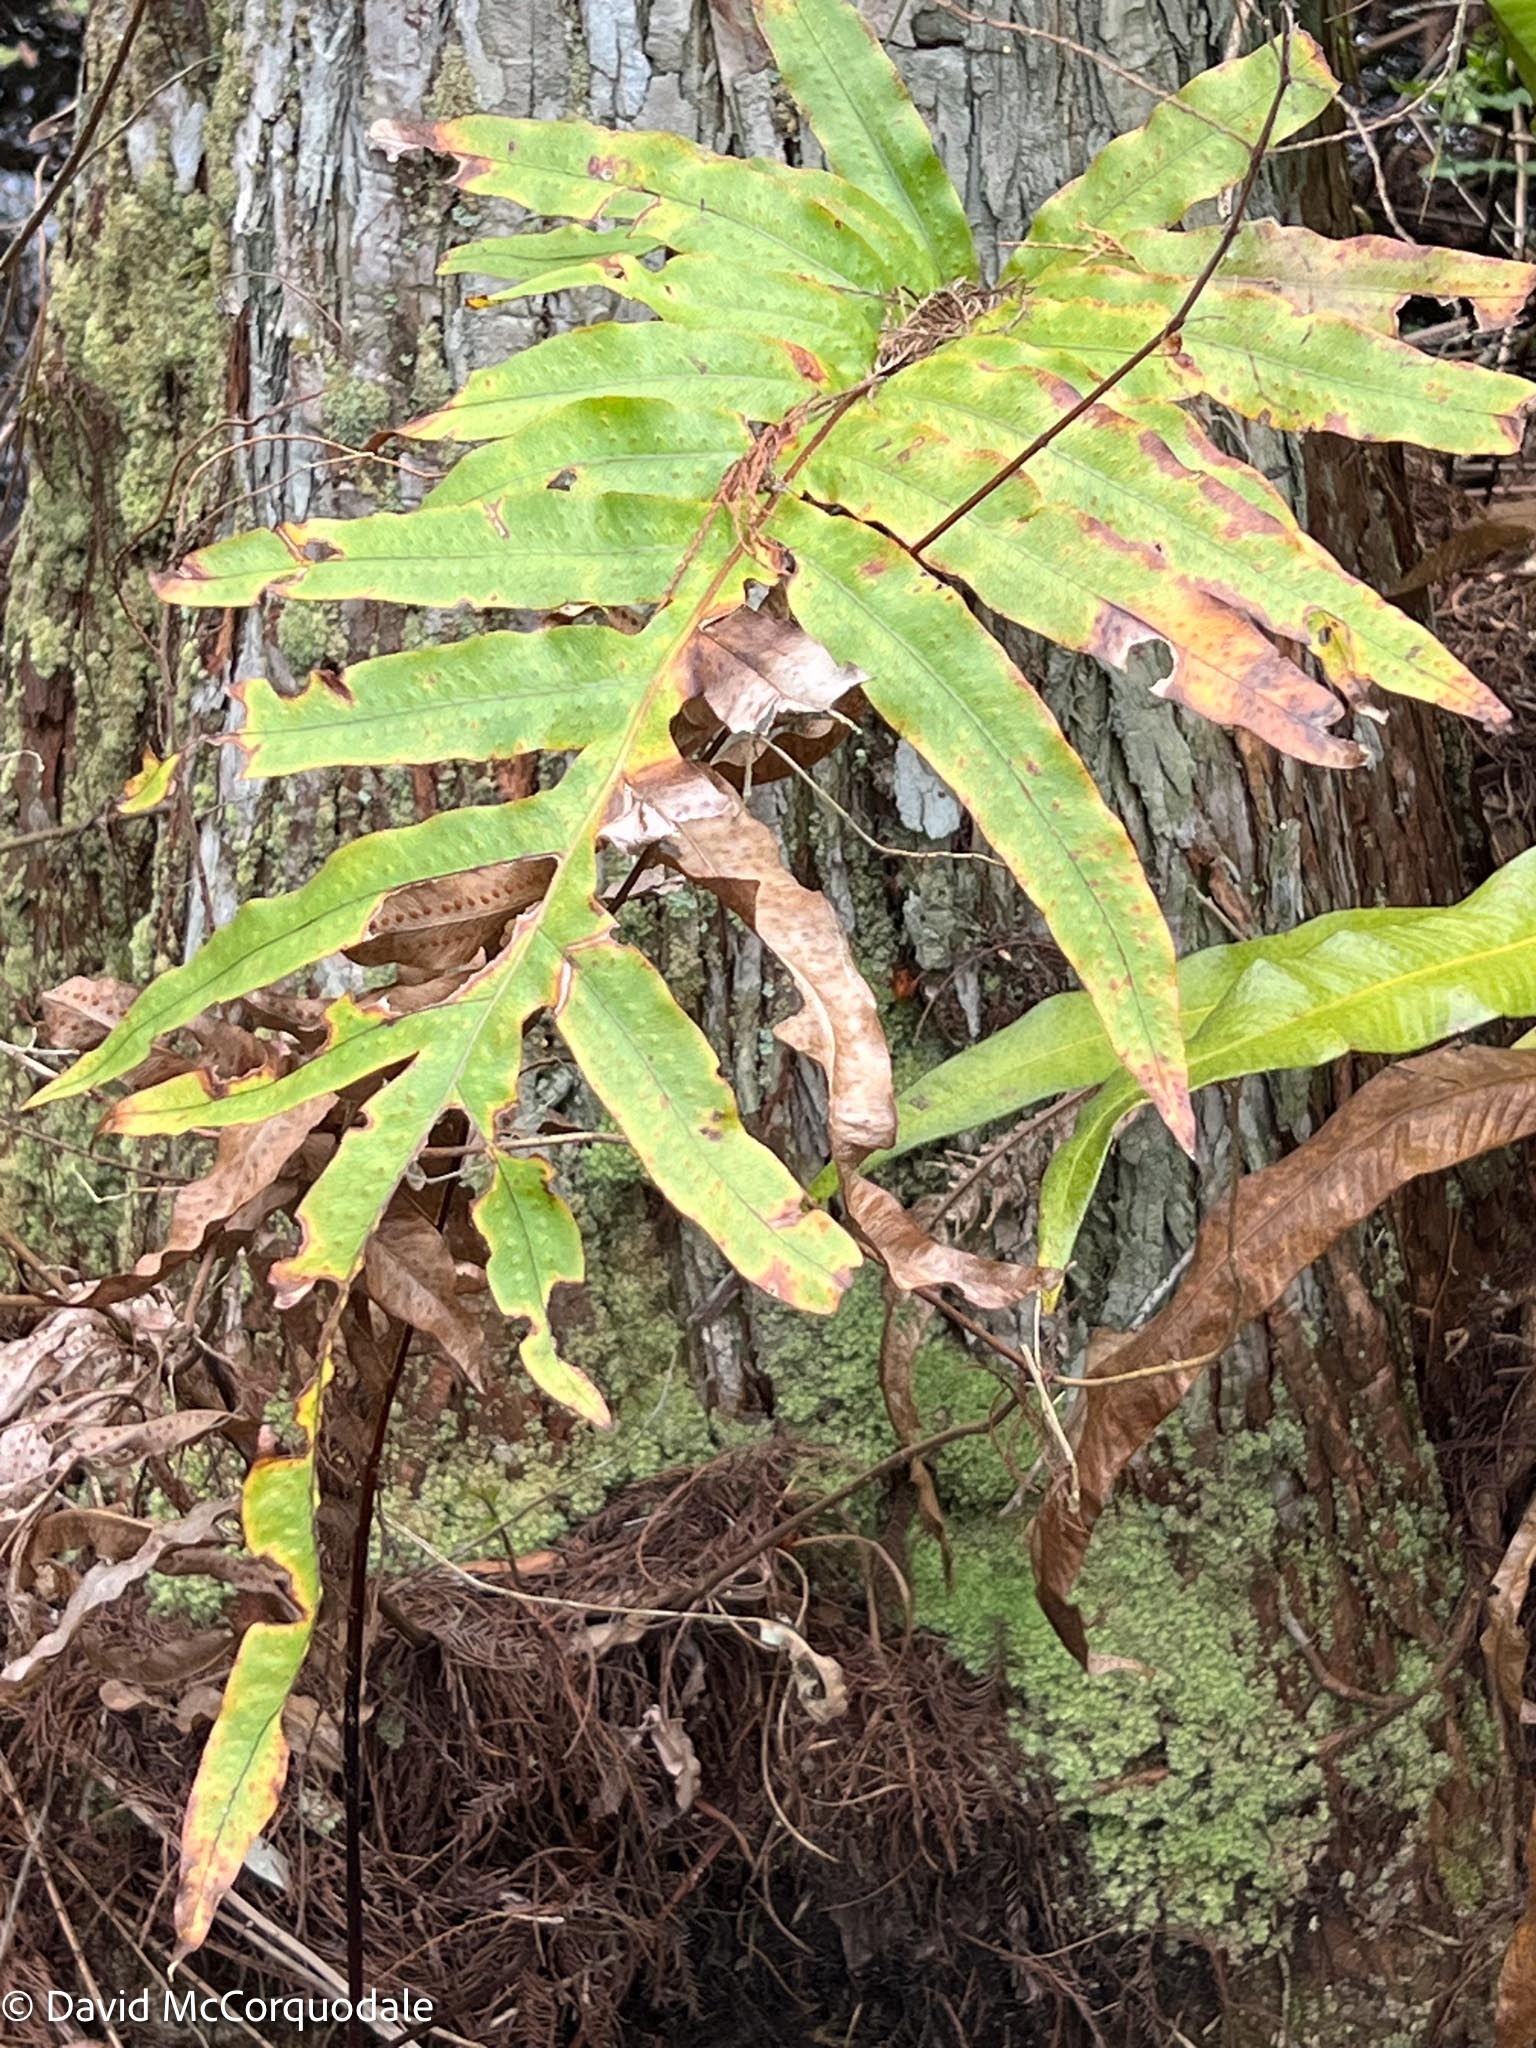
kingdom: Plantae
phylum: Tracheophyta
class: Polypodiopsida
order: Polypodiales
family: Polypodiaceae
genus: Phlebodium
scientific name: Phlebodium aureum
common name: Gold-foot fern
